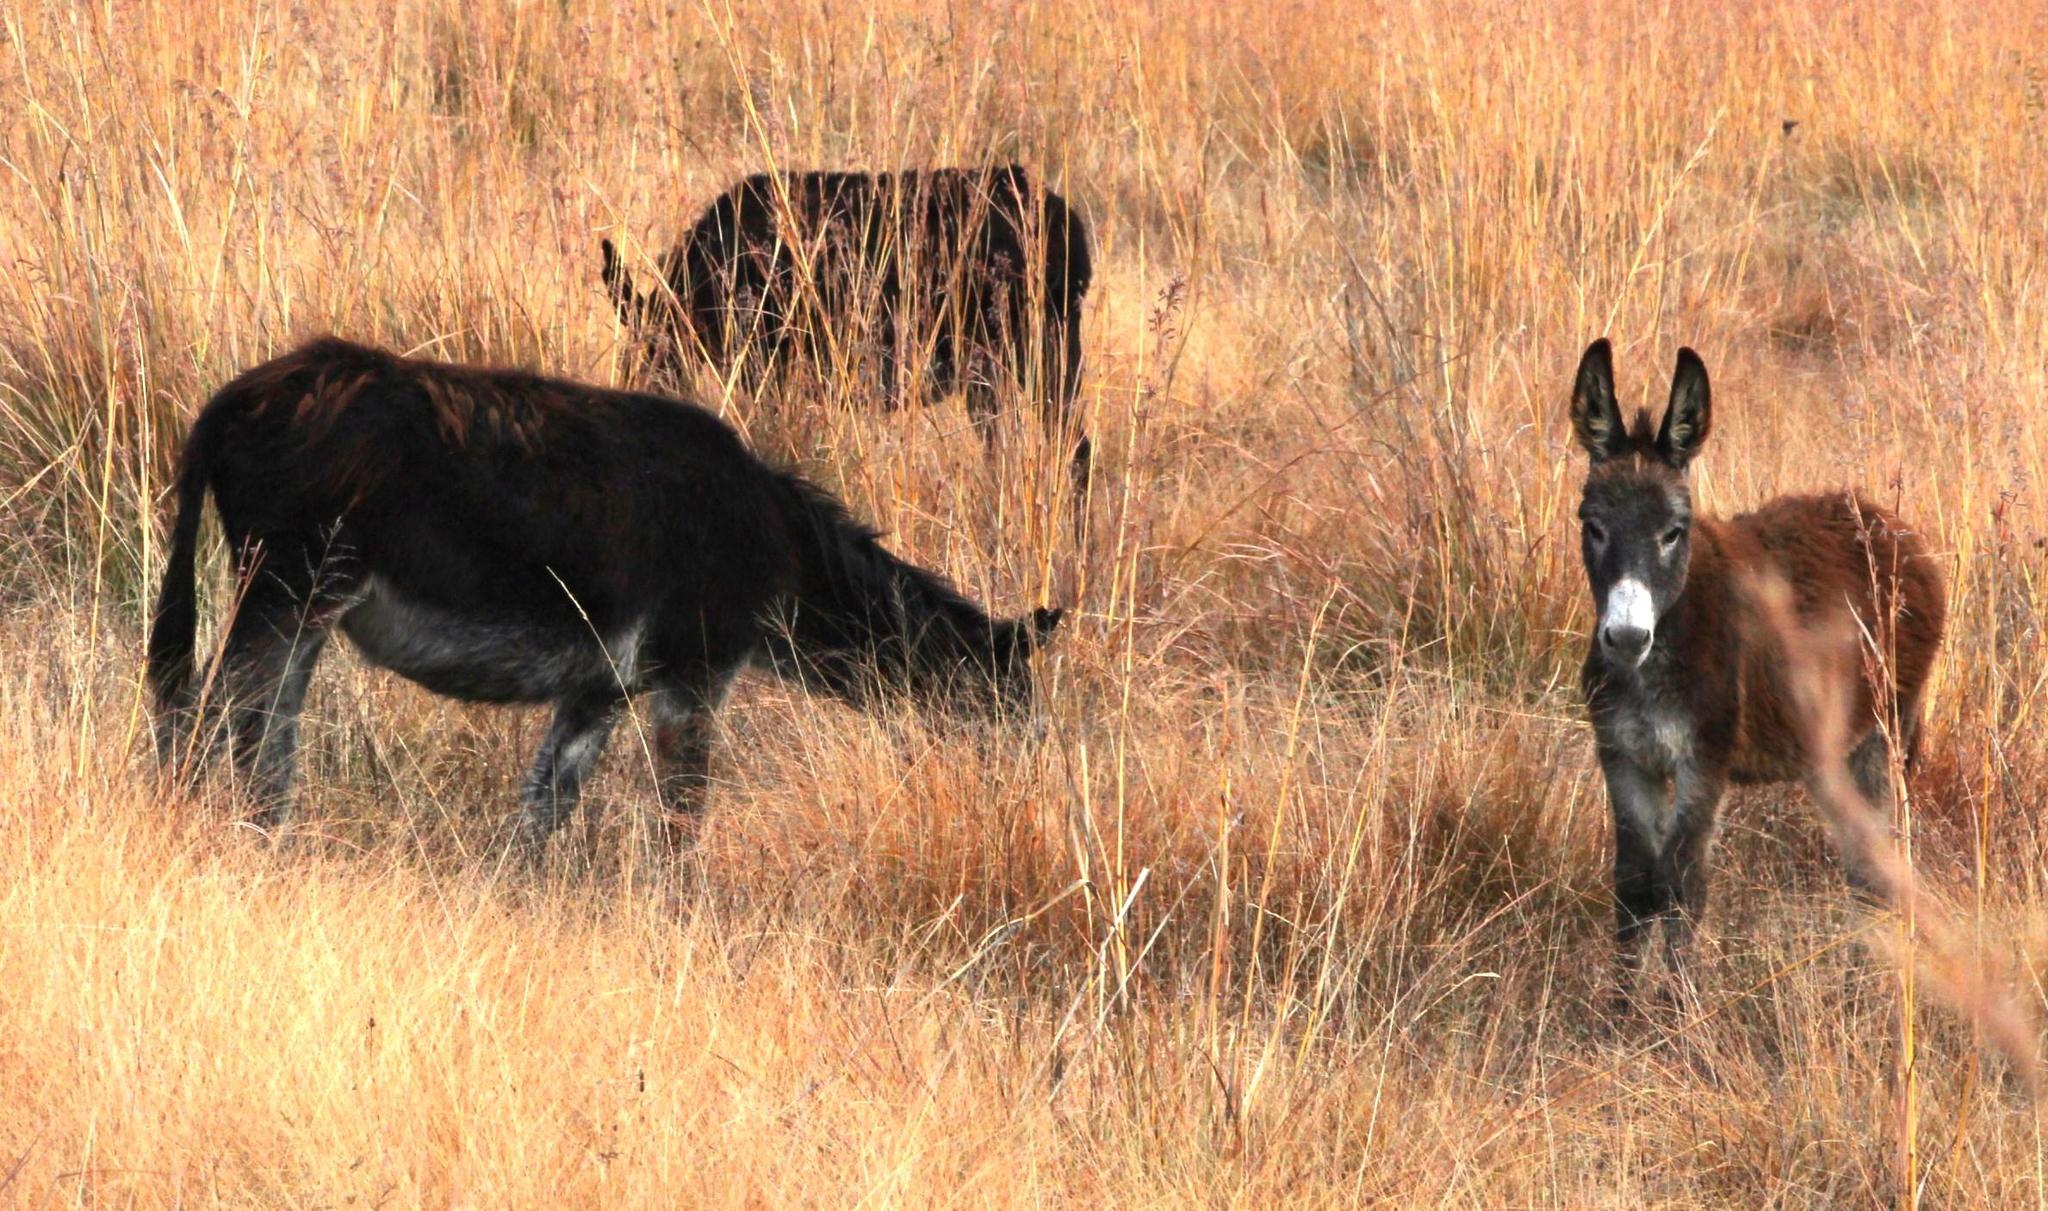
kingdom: Animalia
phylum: Chordata
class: Mammalia
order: Perissodactyla
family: Equidae
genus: Equus
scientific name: Equus asinus
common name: Ass
